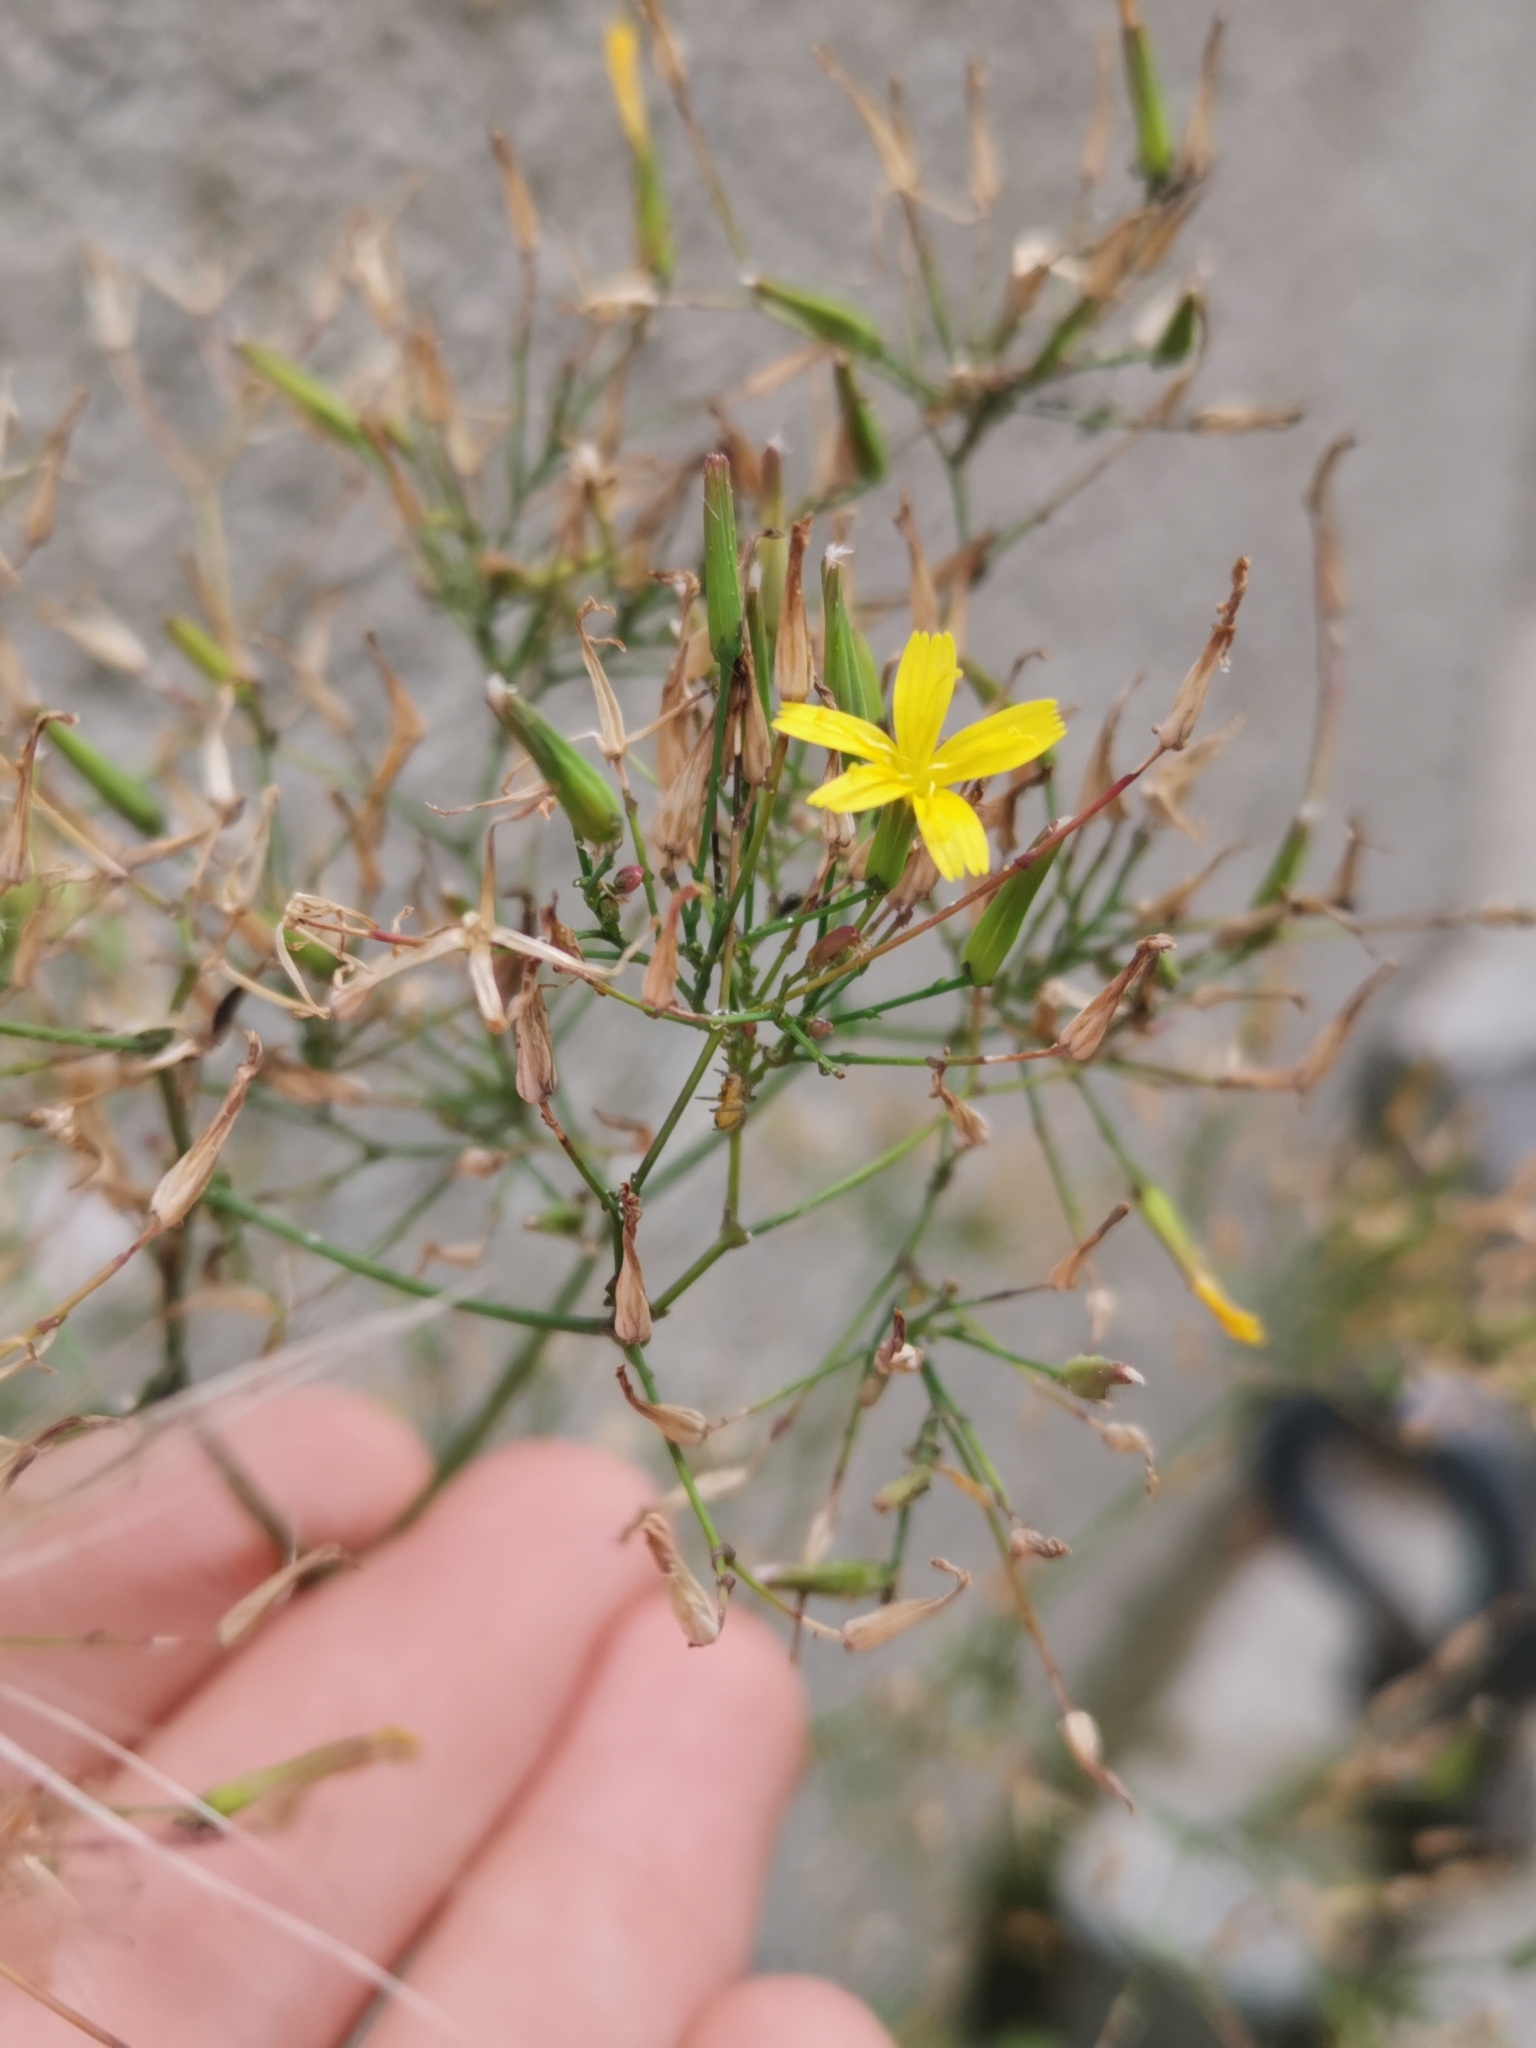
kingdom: Plantae
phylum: Tracheophyta
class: Magnoliopsida
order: Asterales
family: Asteraceae
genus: Mycelis
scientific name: Mycelis muralis
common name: Wall lettuce
